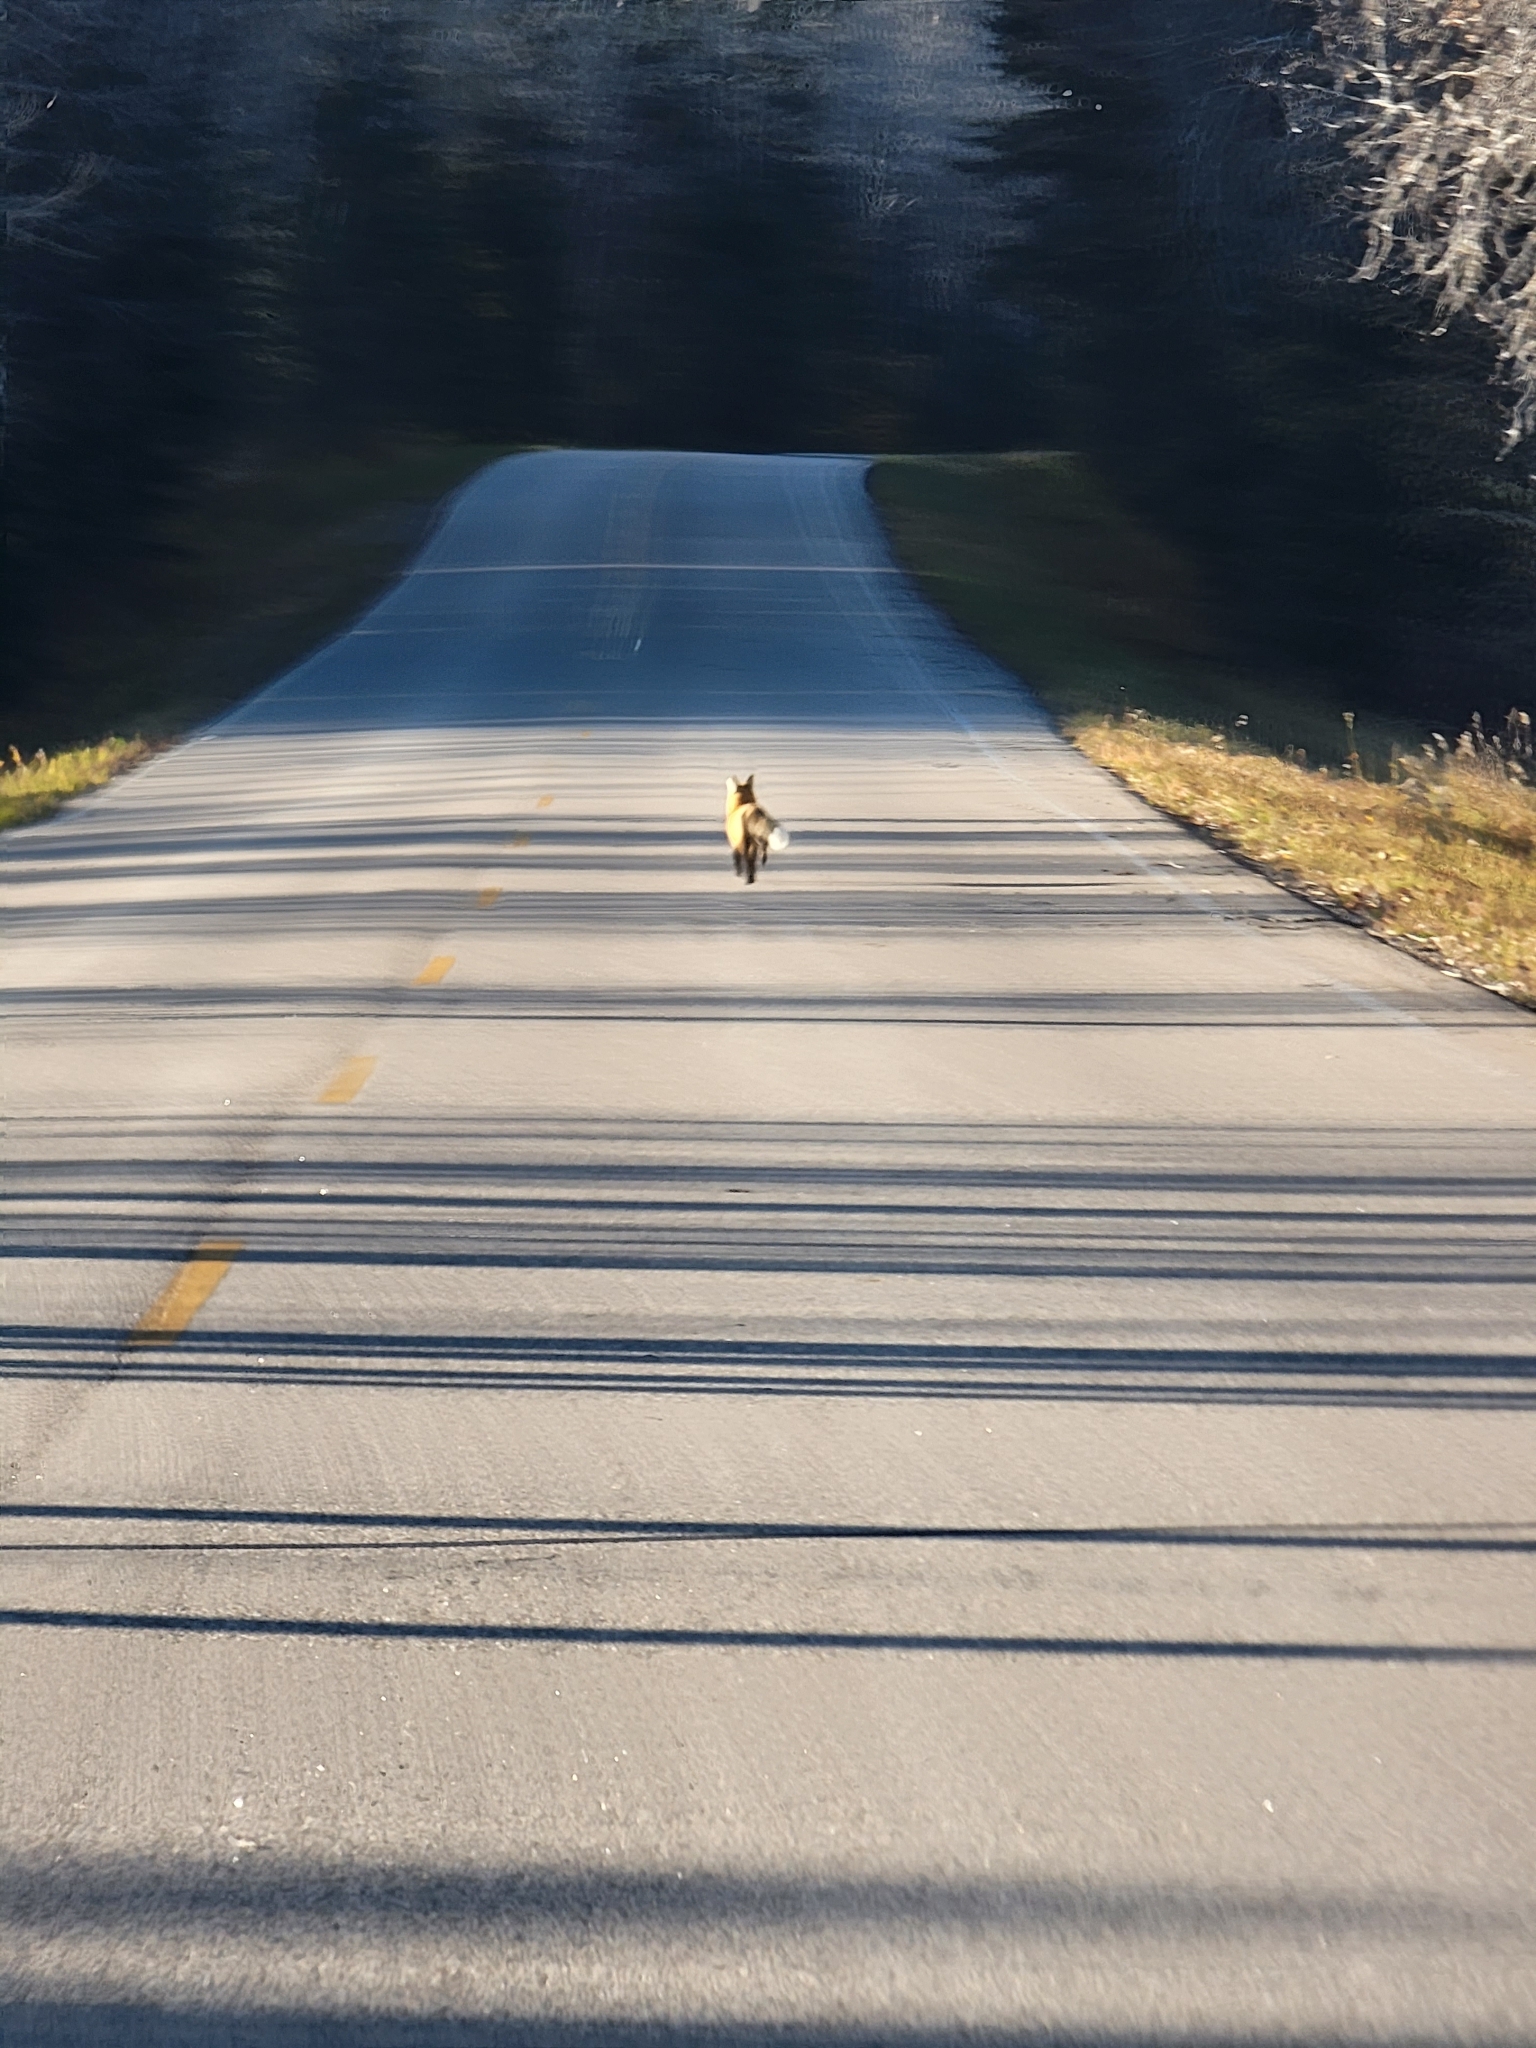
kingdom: Animalia
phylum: Chordata
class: Mammalia
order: Carnivora
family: Canidae
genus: Vulpes
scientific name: Vulpes vulpes
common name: Red fox
